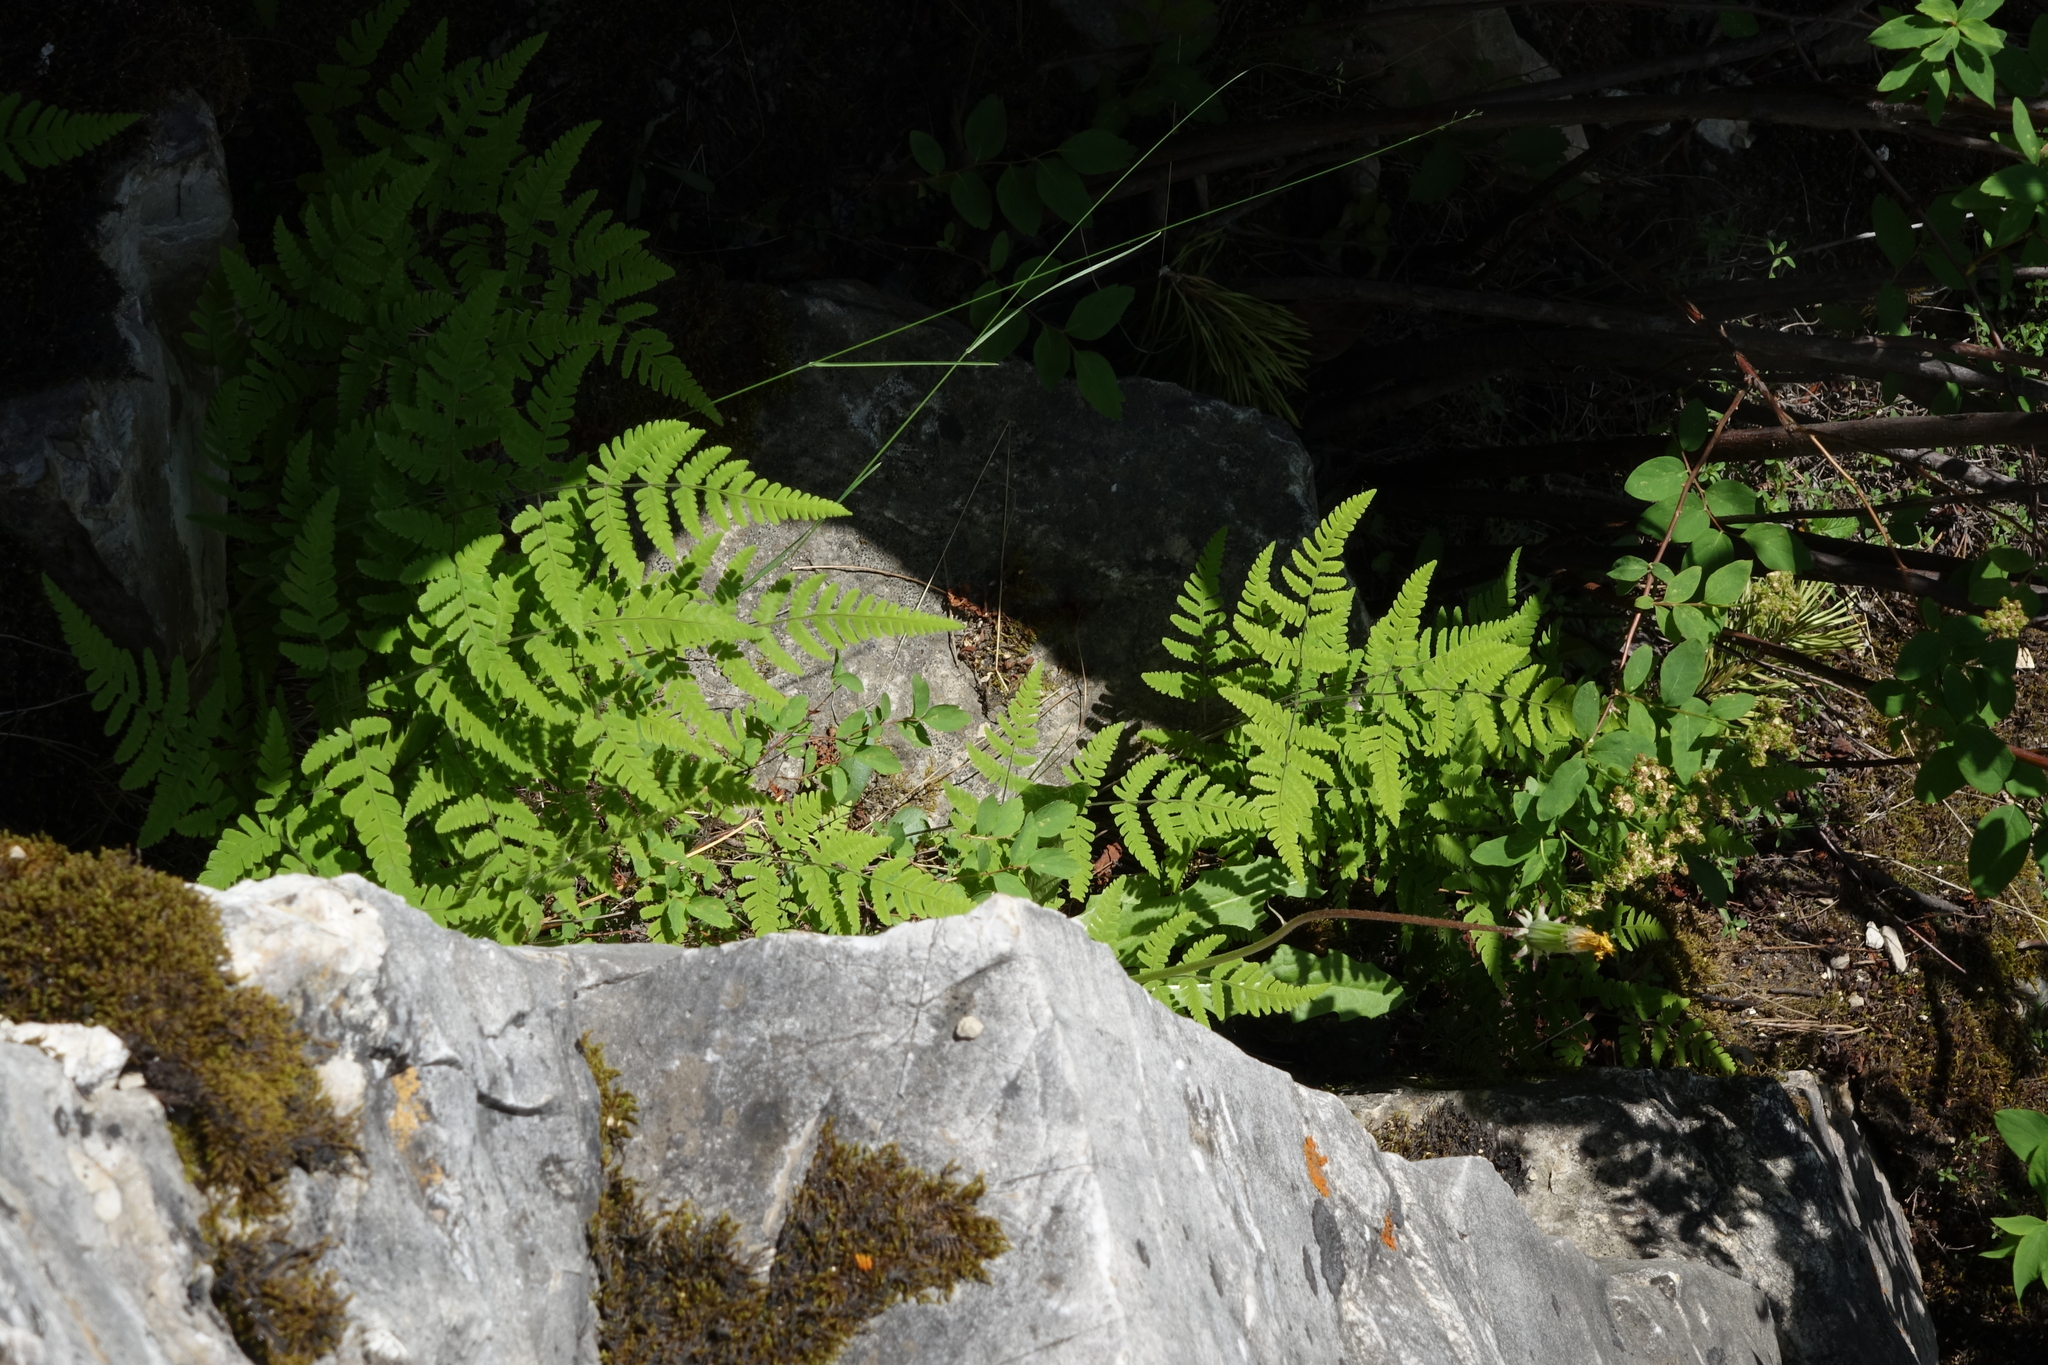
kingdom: Plantae
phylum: Tracheophyta
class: Polypodiopsida
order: Polypodiales
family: Cystopteridaceae
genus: Gymnocarpium
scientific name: Gymnocarpium jessoense
